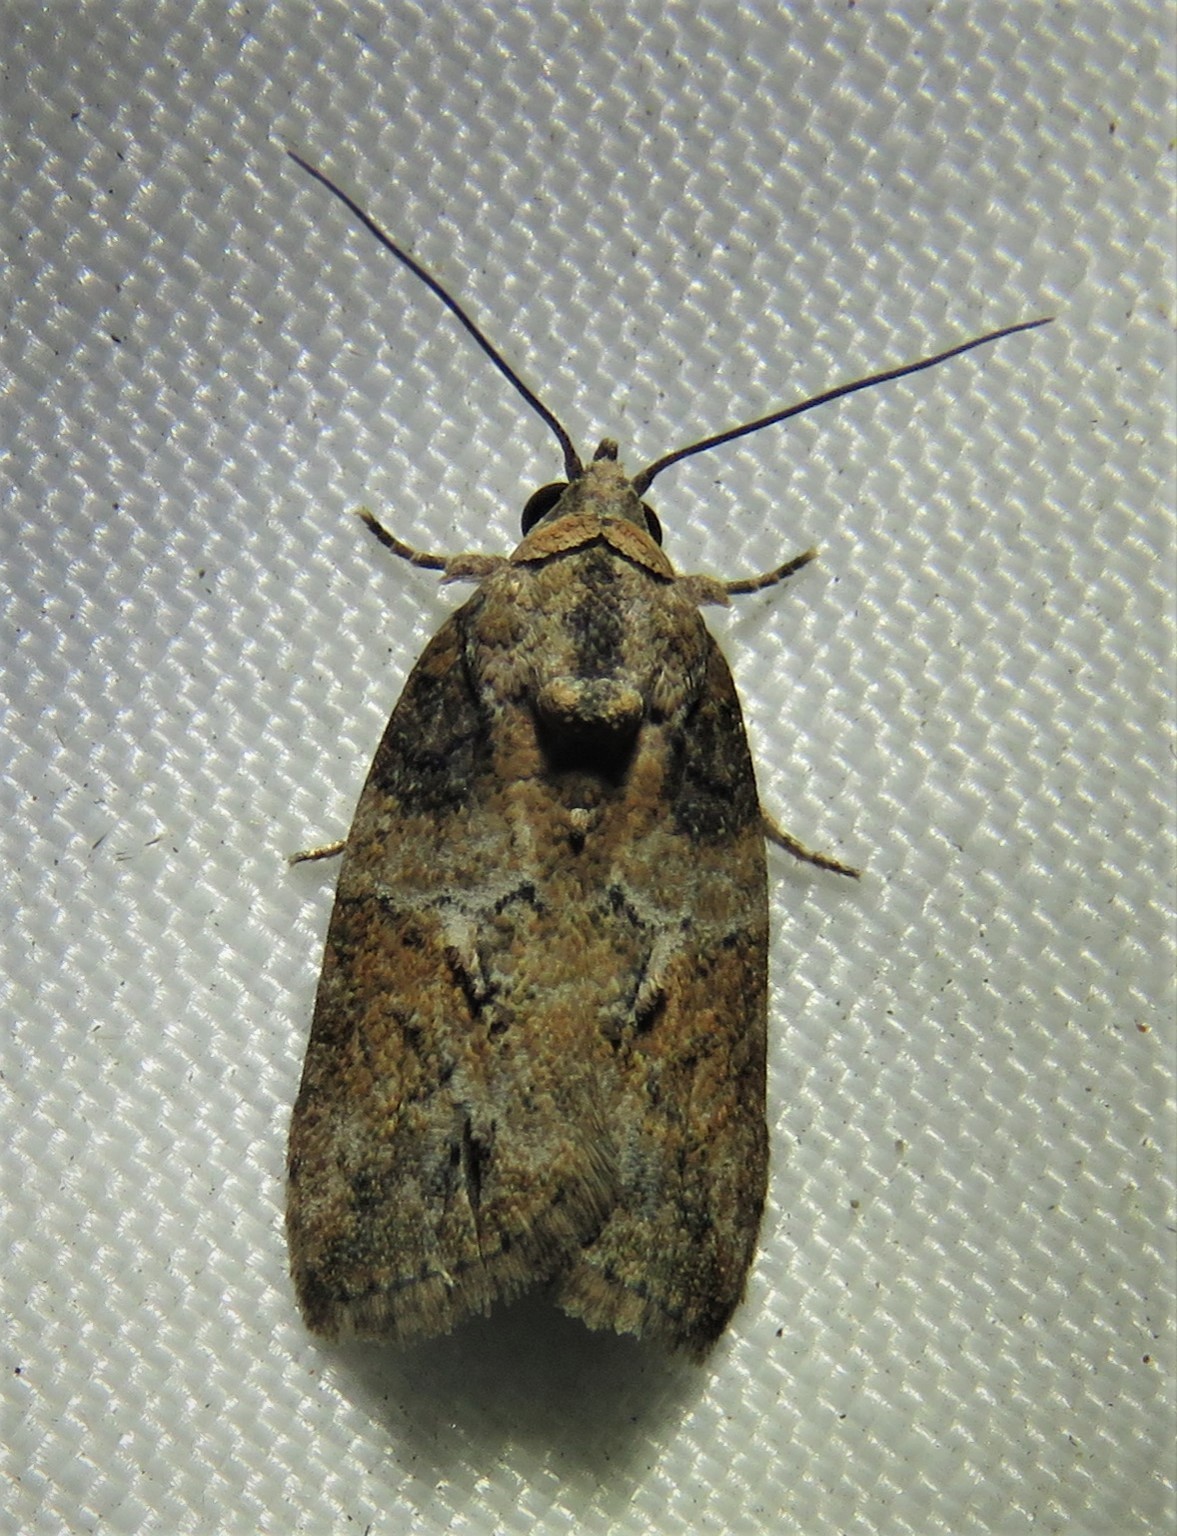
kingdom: Animalia
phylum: Arthropoda
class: Insecta
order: Lepidoptera
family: Nolidae
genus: Garella
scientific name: Garella nilotica
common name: Black-olive caterpillar moth
